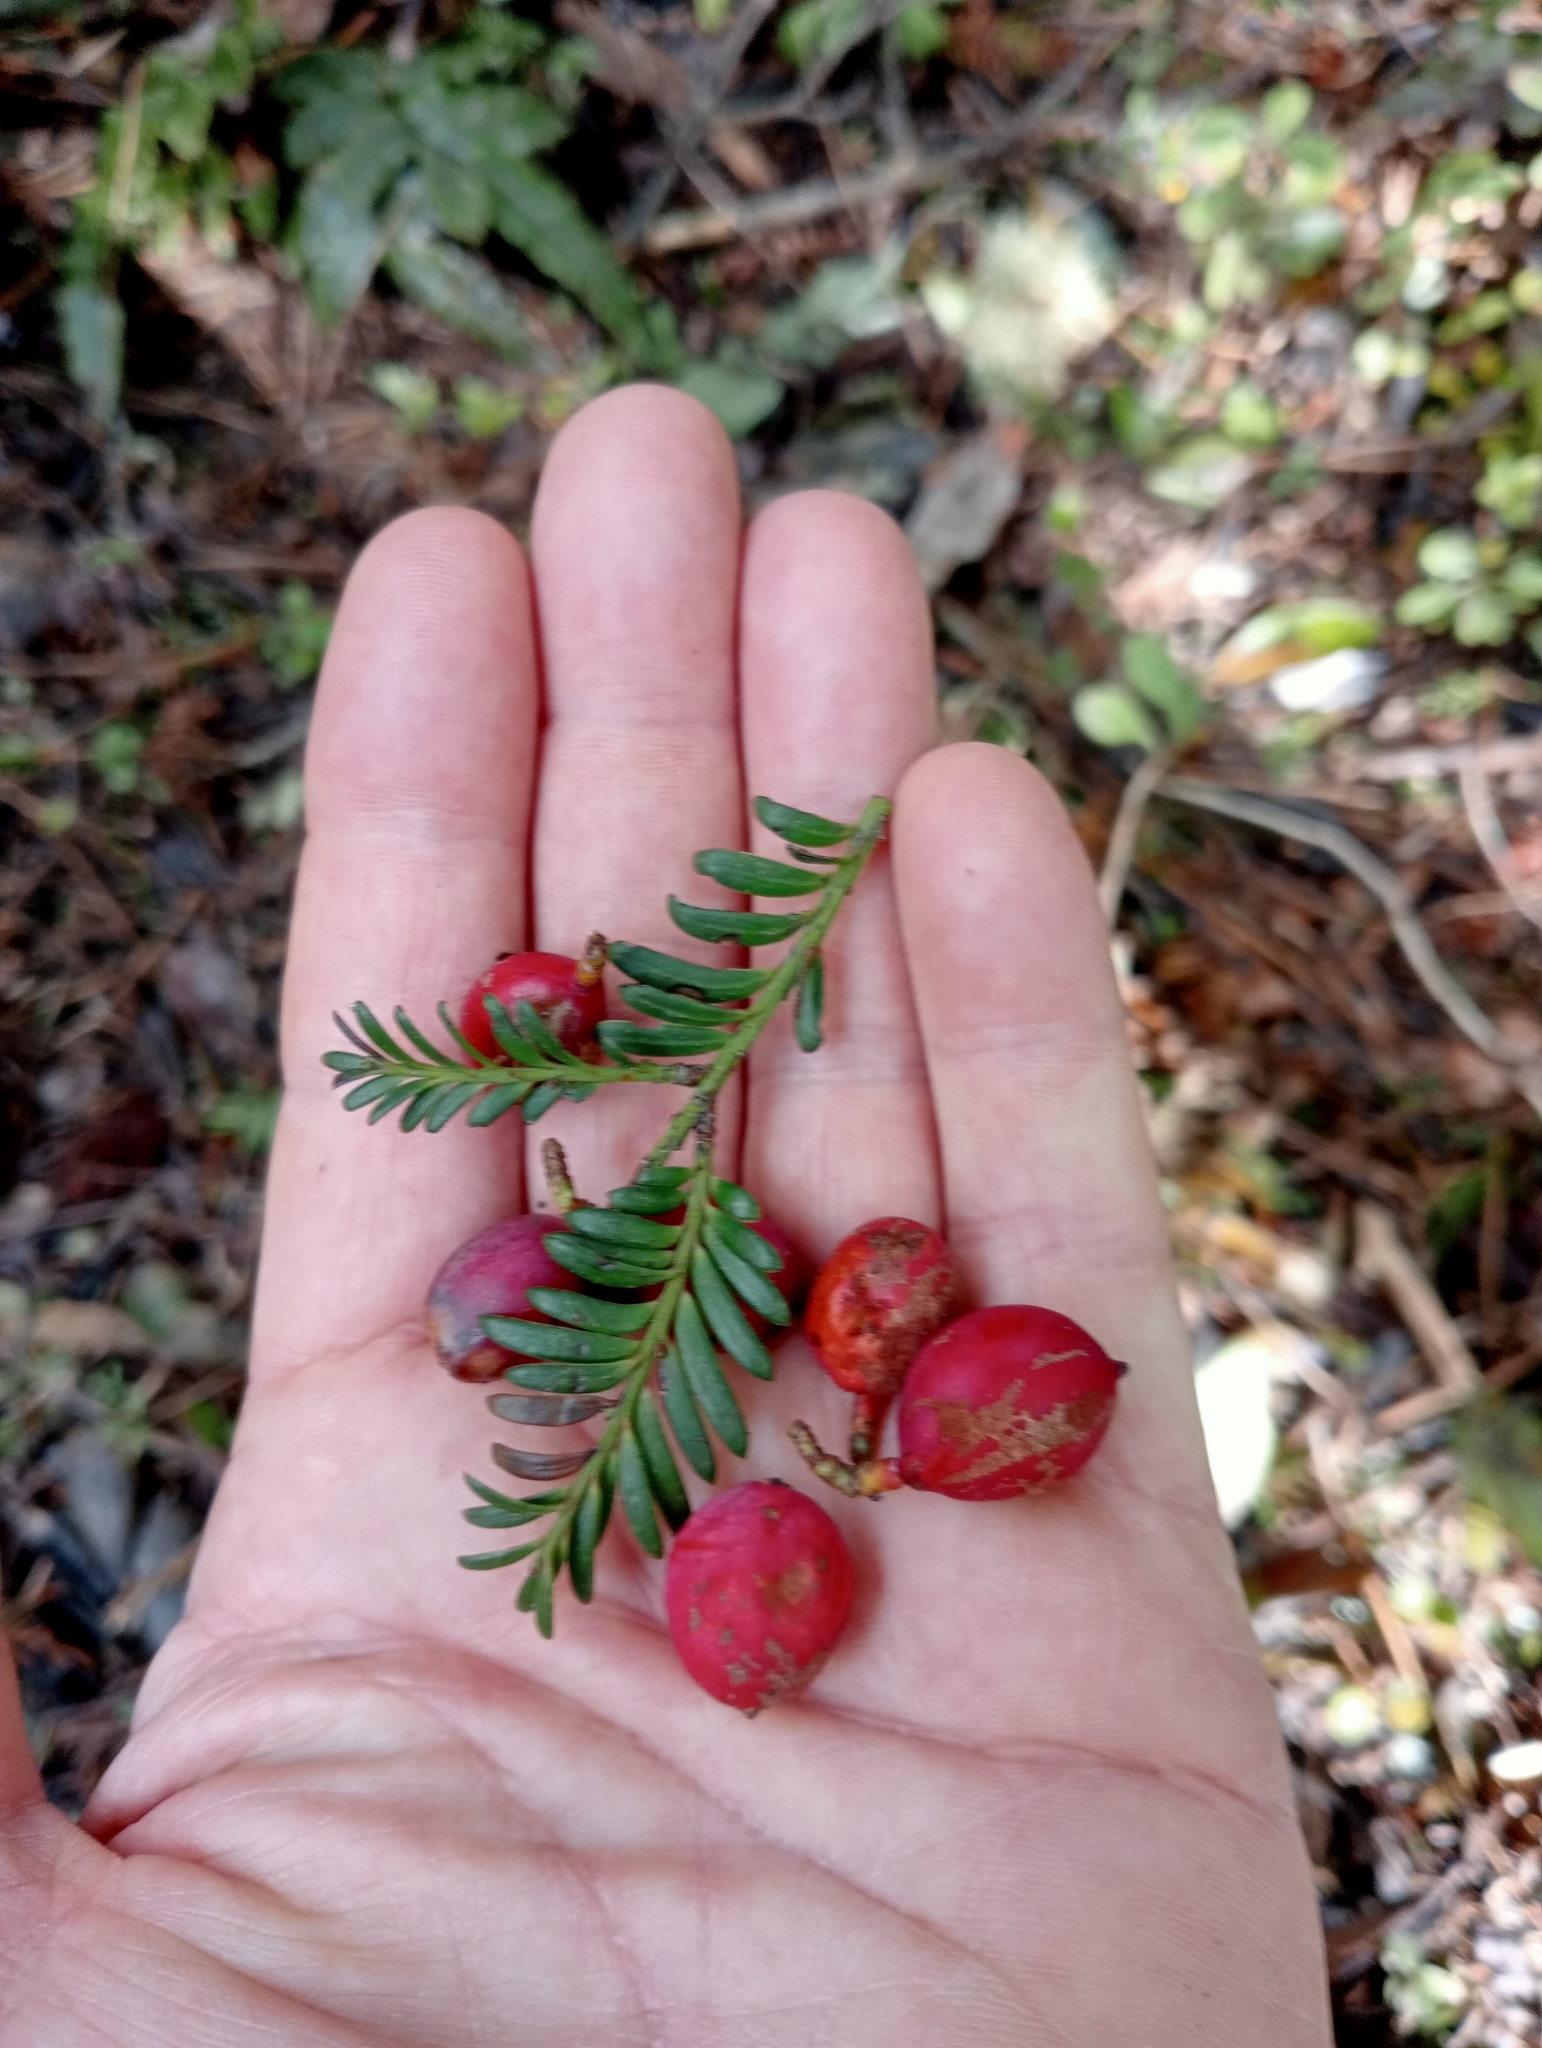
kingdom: Plantae
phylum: Tracheophyta
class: Pinopsida
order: Pinales
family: Podocarpaceae
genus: Prumnopitys
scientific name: Prumnopitys ferruginea
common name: Brown pine
